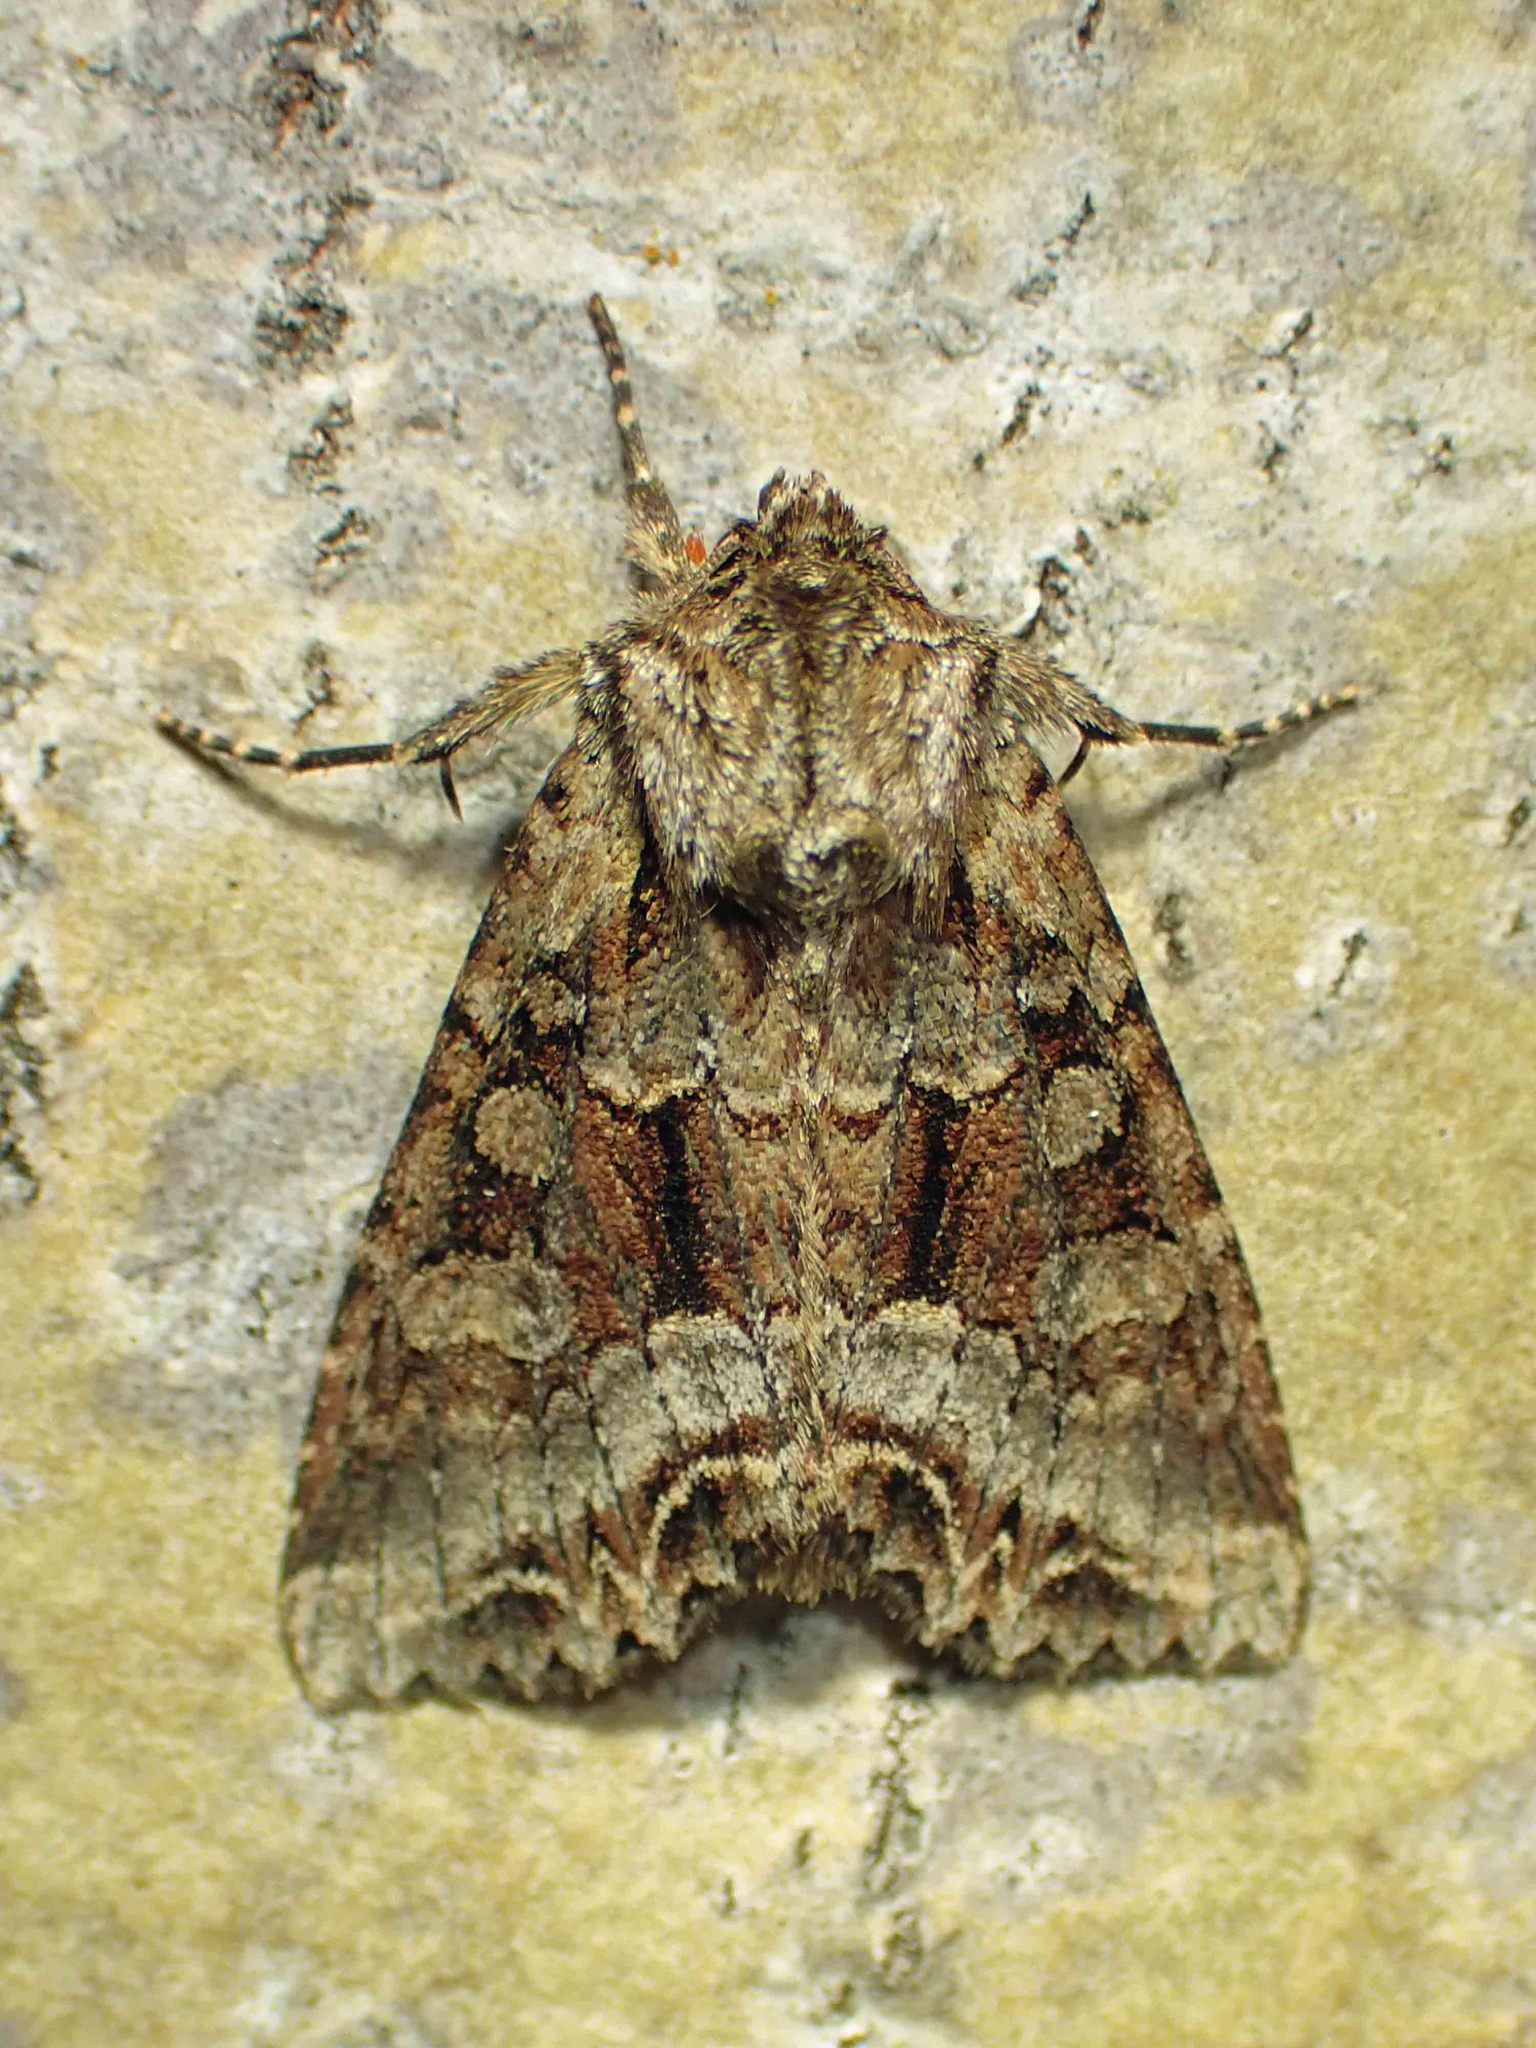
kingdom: Animalia
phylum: Arthropoda
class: Insecta
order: Lepidoptera
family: Noctuidae
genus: Lacanobia
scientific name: Lacanobia grandis
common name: Grand arches moth
